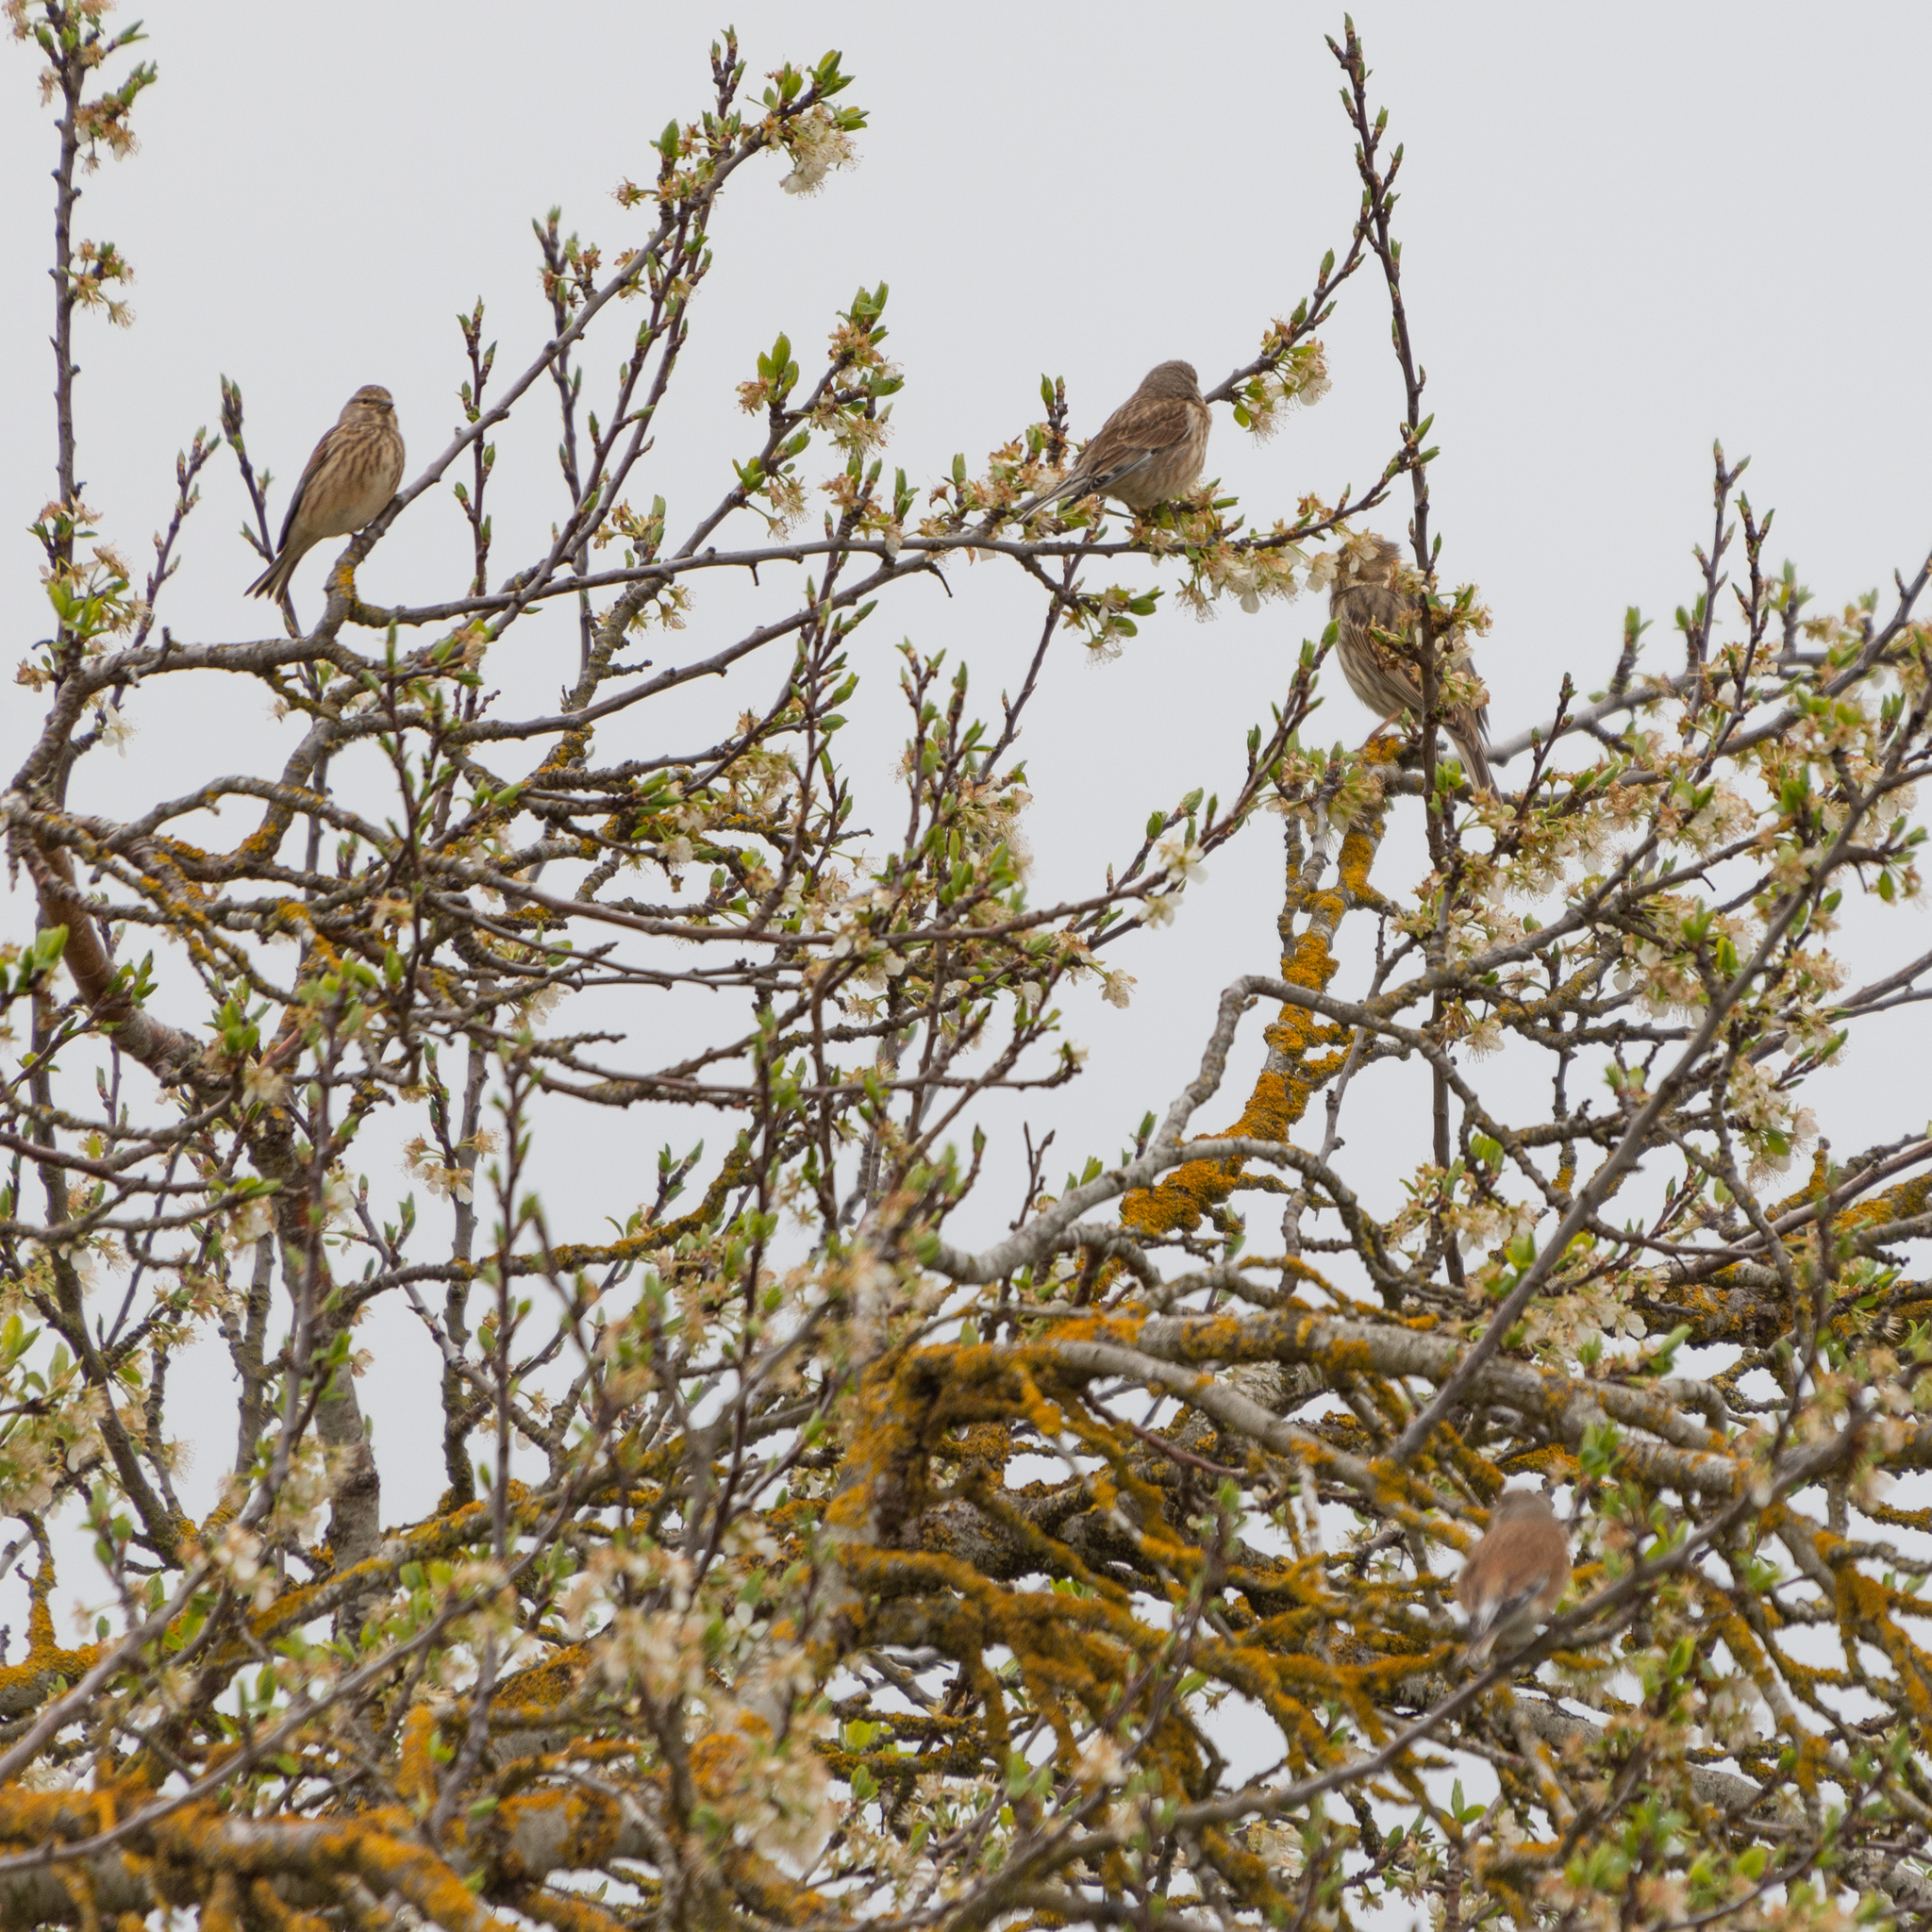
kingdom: Animalia
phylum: Chordata
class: Aves
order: Passeriformes
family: Fringillidae
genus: Linaria
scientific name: Linaria cannabina
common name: Common linnet
